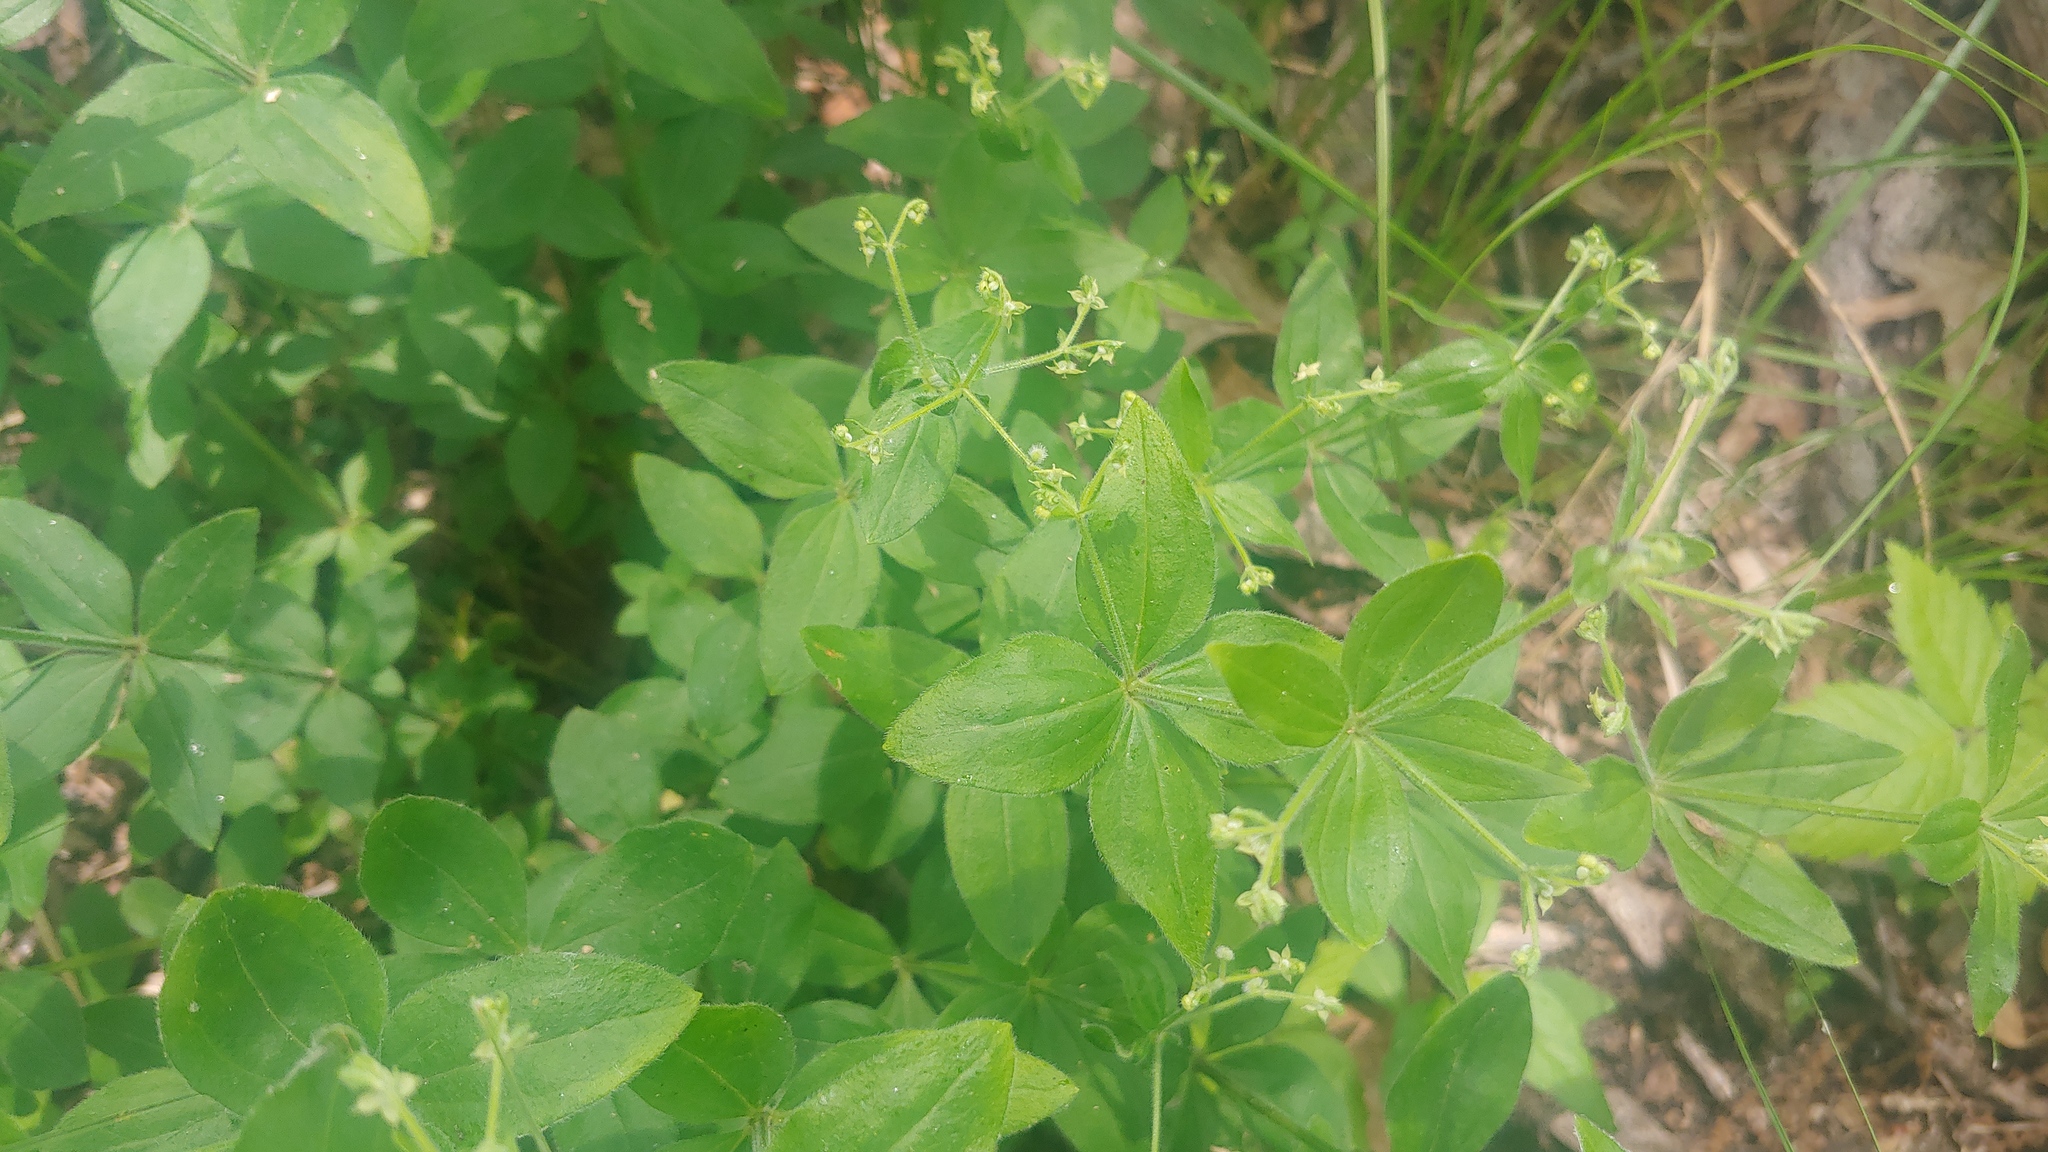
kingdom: Plantae
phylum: Tracheophyta
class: Magnoliopsida
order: Gentianales
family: Rubiaceae
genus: Galium
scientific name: Galium circaezans
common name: Forest bedstraw
